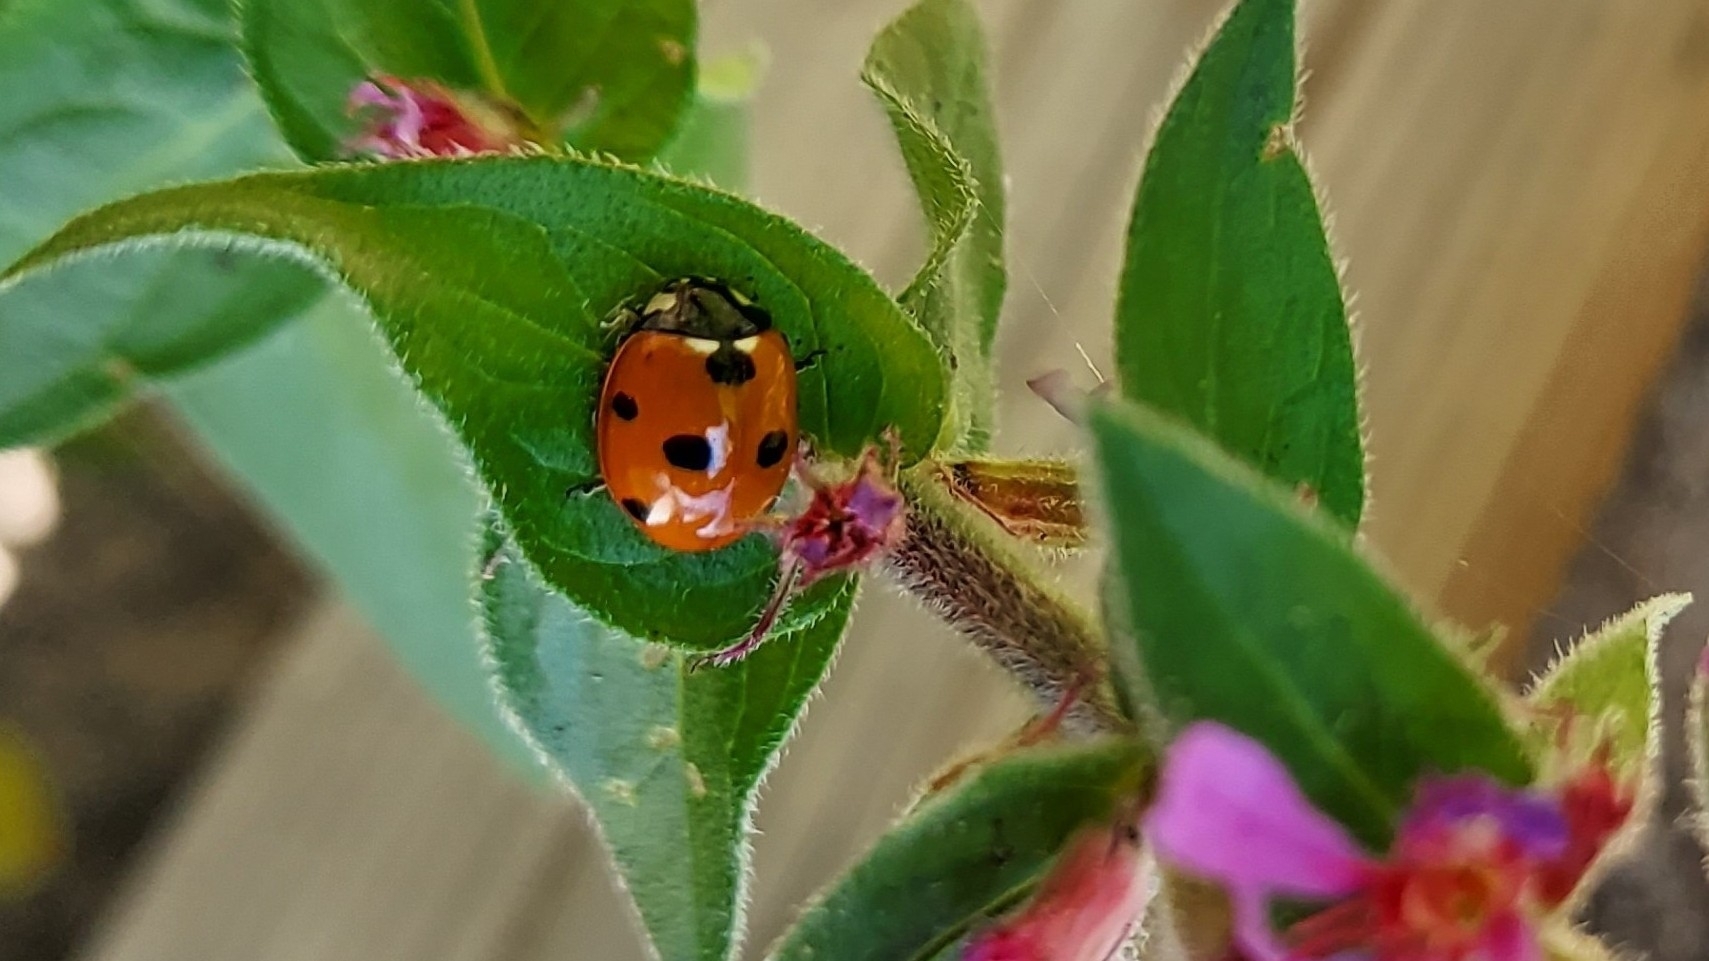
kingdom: Animalia
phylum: Arthropoda
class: Insecta
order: Coleoptera
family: Coccinellidae
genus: Coccinella
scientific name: Coccinella septempunctata
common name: Sevenspotted lady beetle
